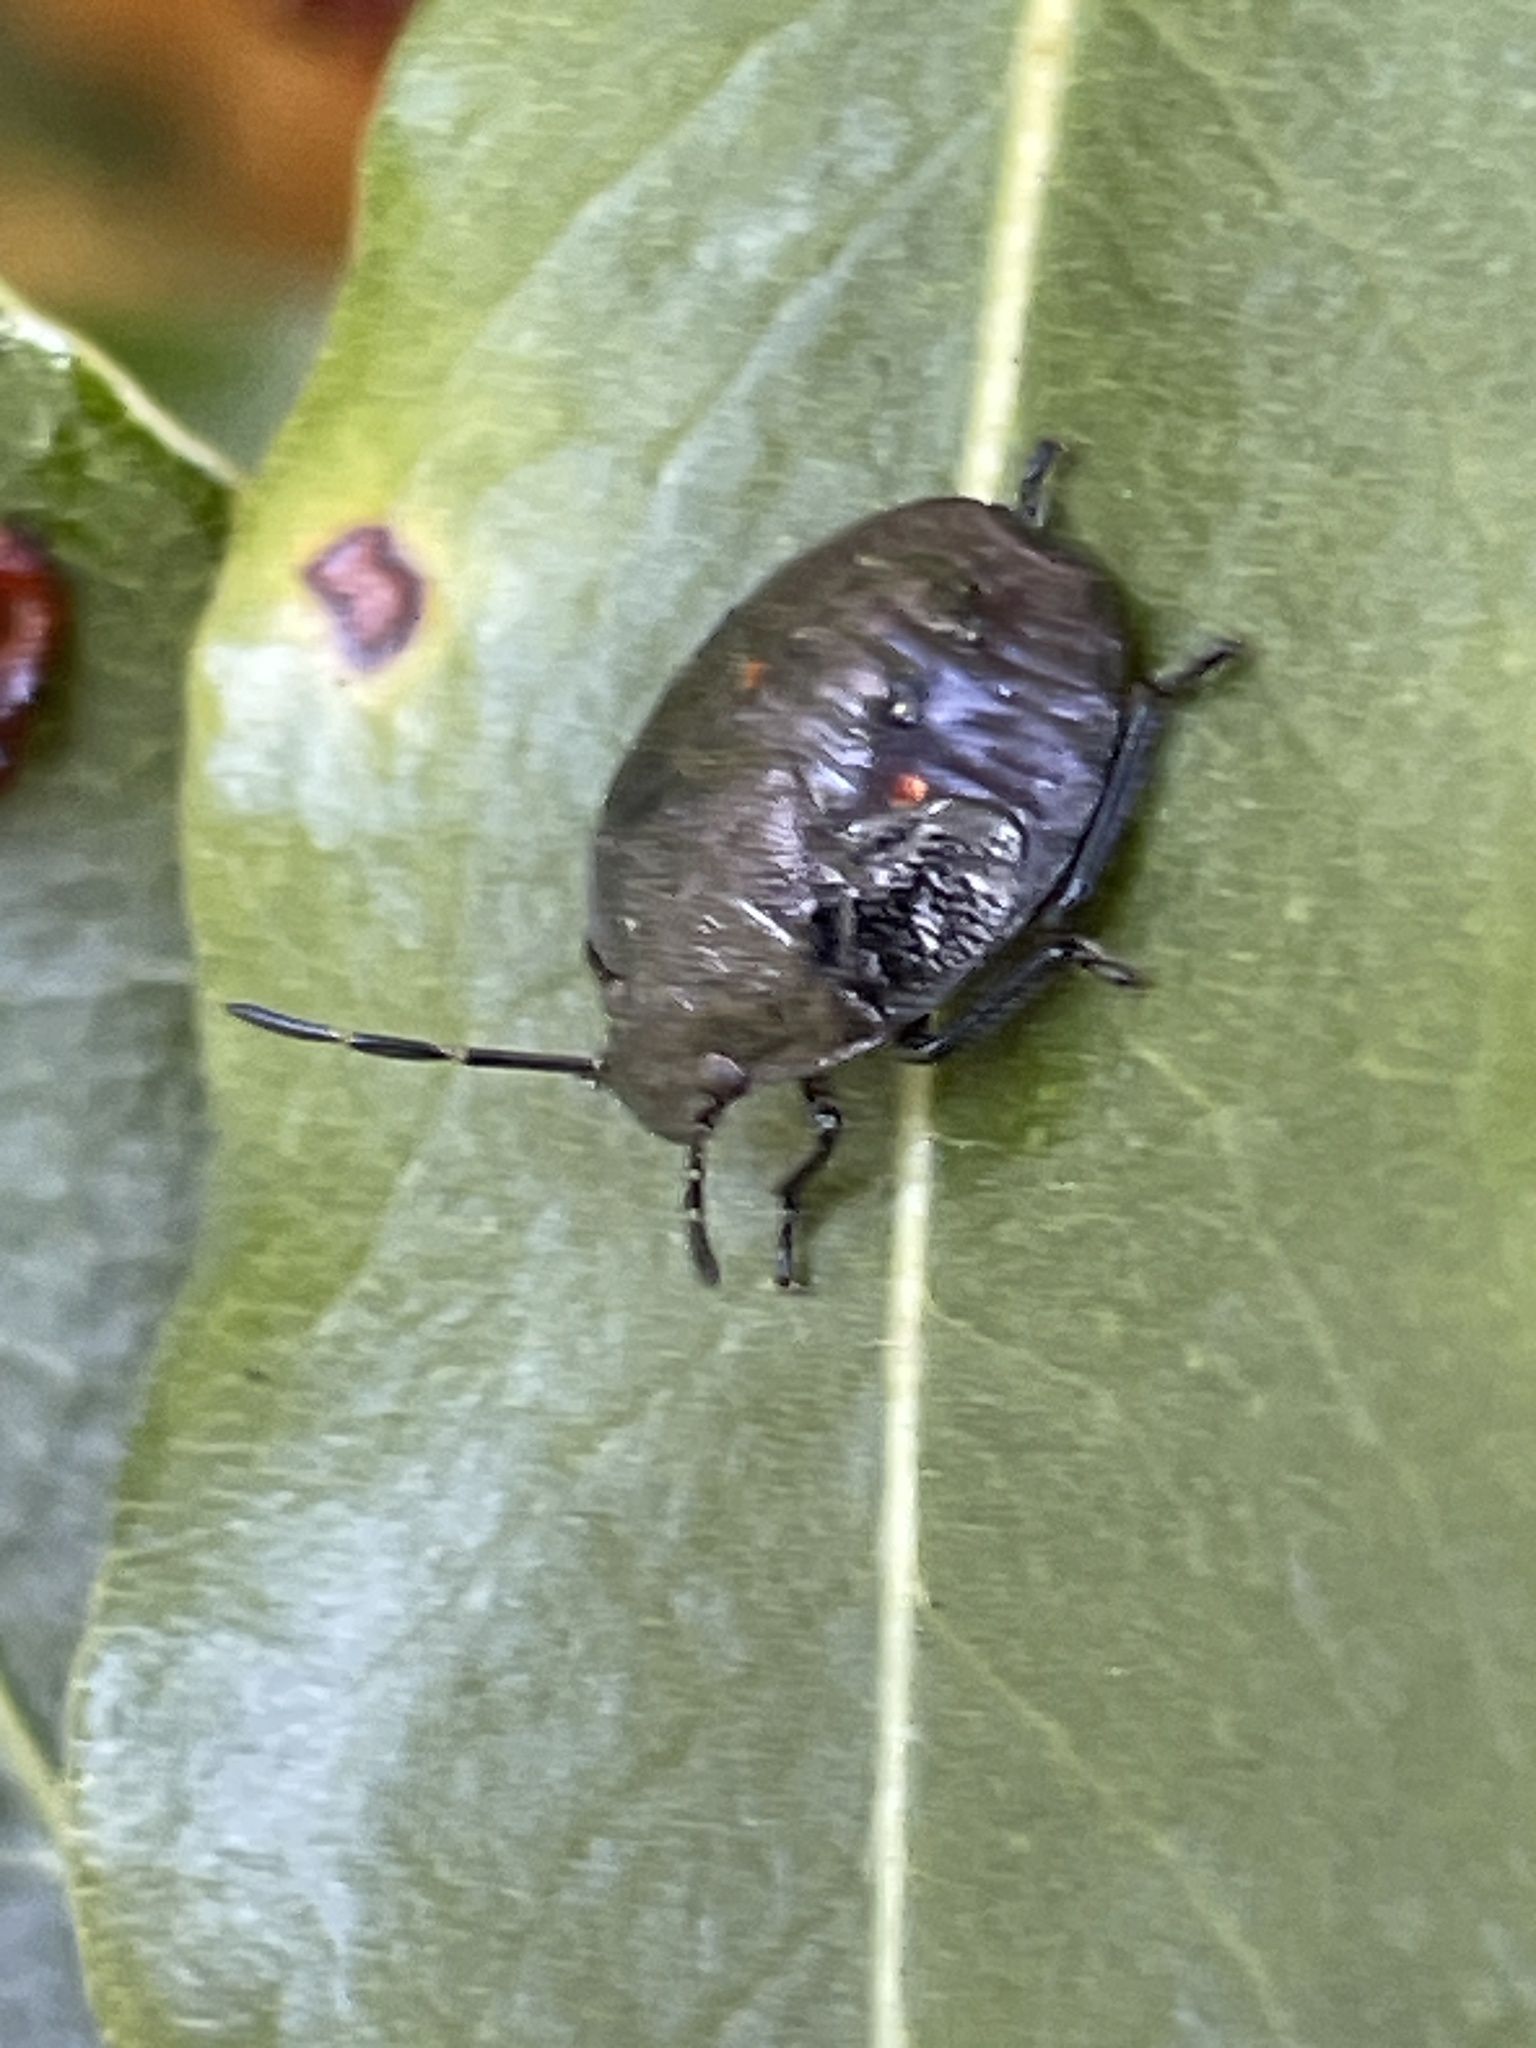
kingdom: Animalia
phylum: Arthropoda
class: Insecta
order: Hemiptera
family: Pentatomidae
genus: Monteithiella
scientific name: Monteithiella
